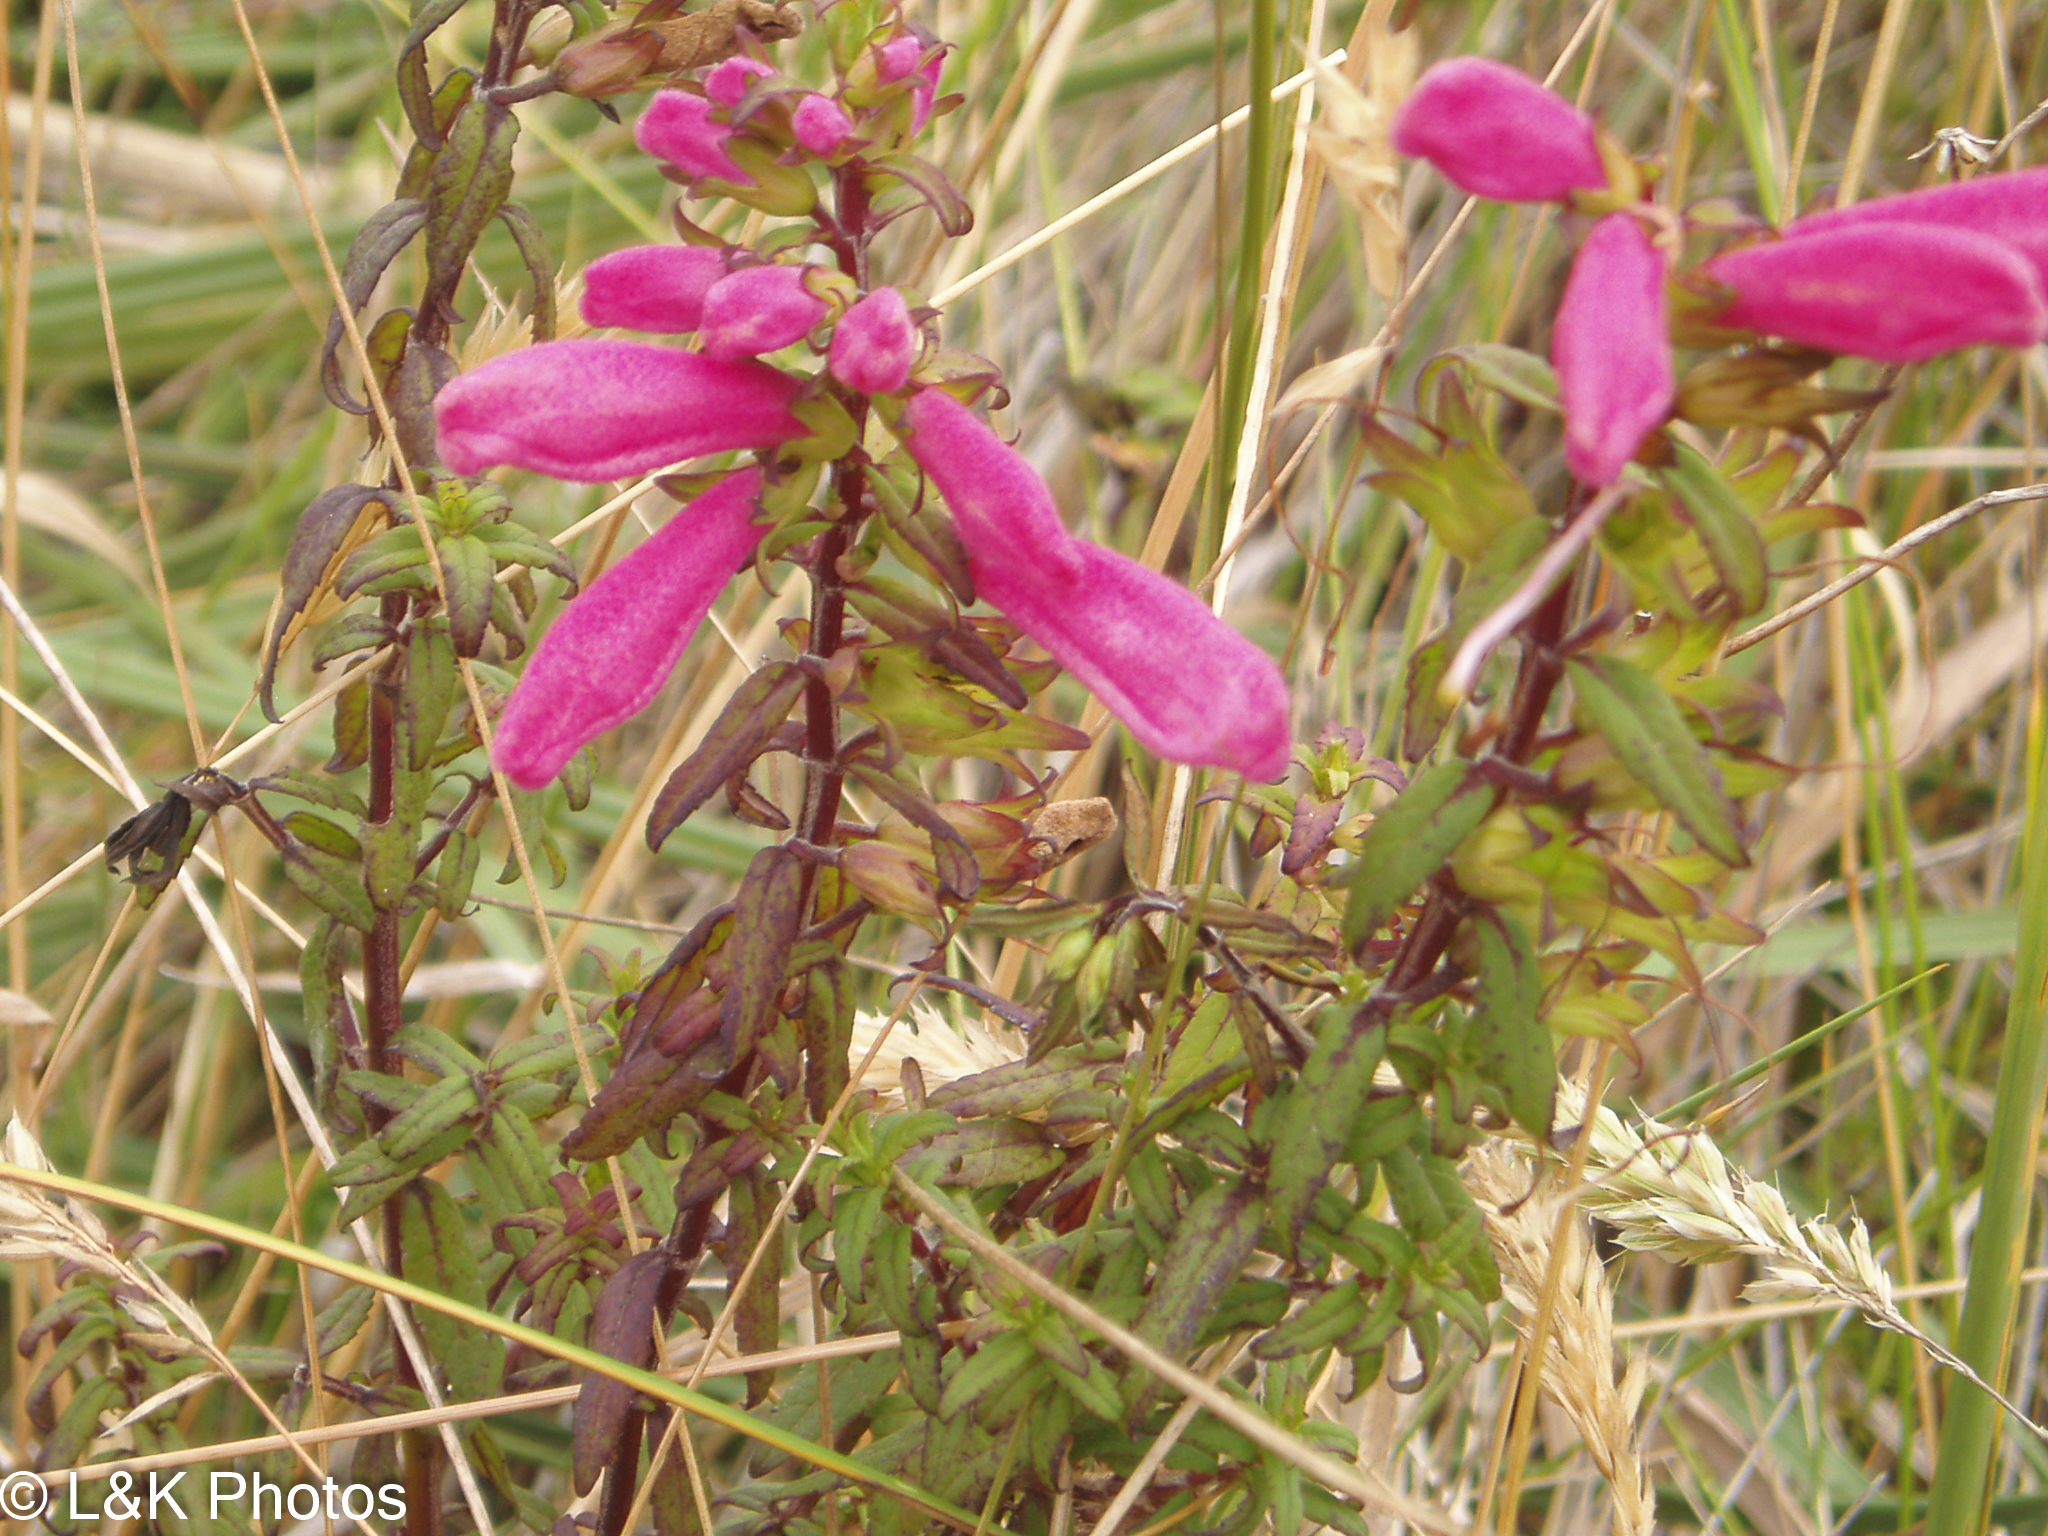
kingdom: Plantae
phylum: Tracheophyta
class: Magnoliopsida
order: Lamiales
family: Orobanchaceae
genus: Lamourouxia
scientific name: Lamourouxia virgata
